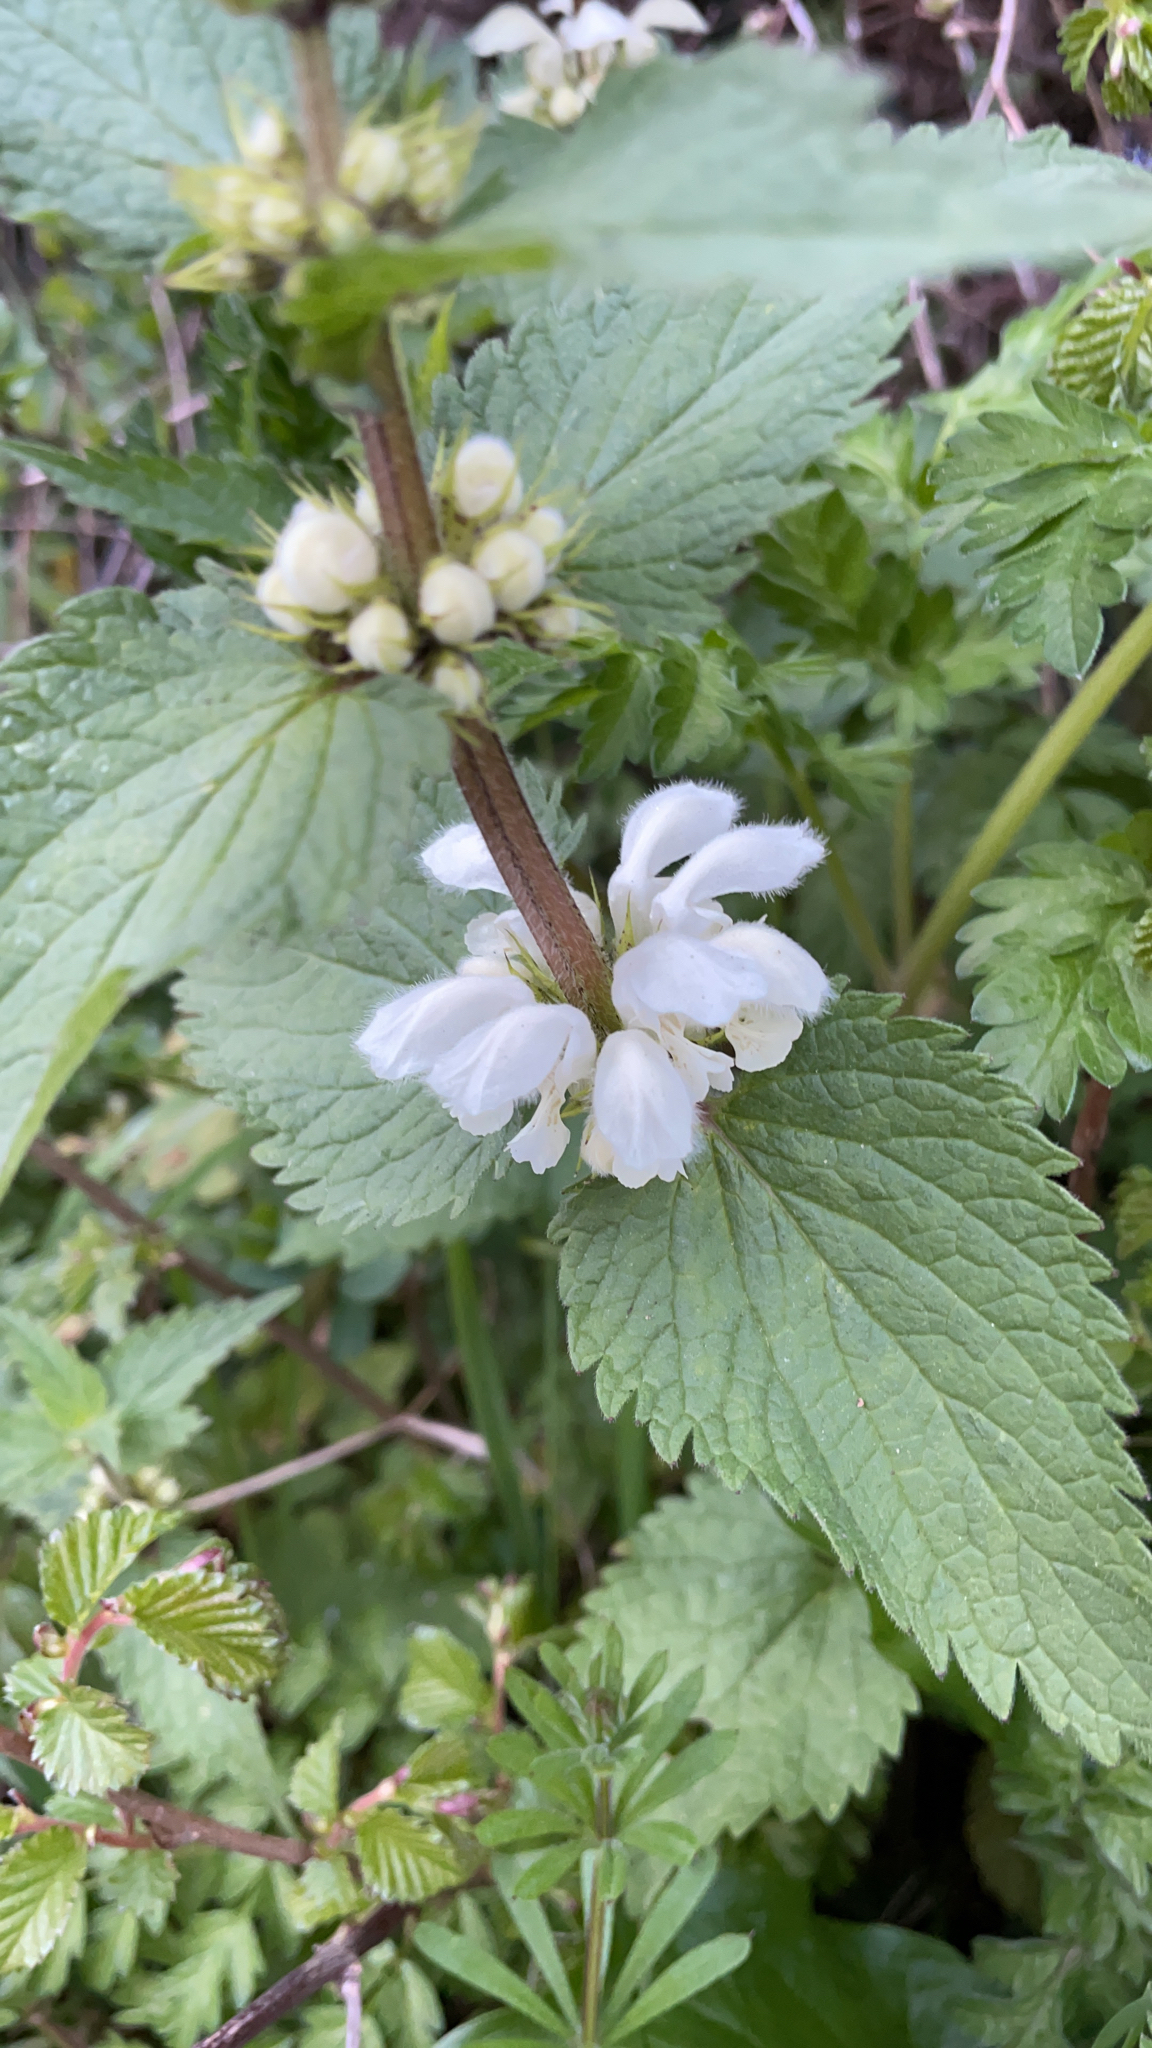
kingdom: Plantae
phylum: Tracheophyta
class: Magnoliopsida
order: Lamiales
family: Lamiaceae
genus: Lamium
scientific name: Lamium album
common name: White dead-nettle
